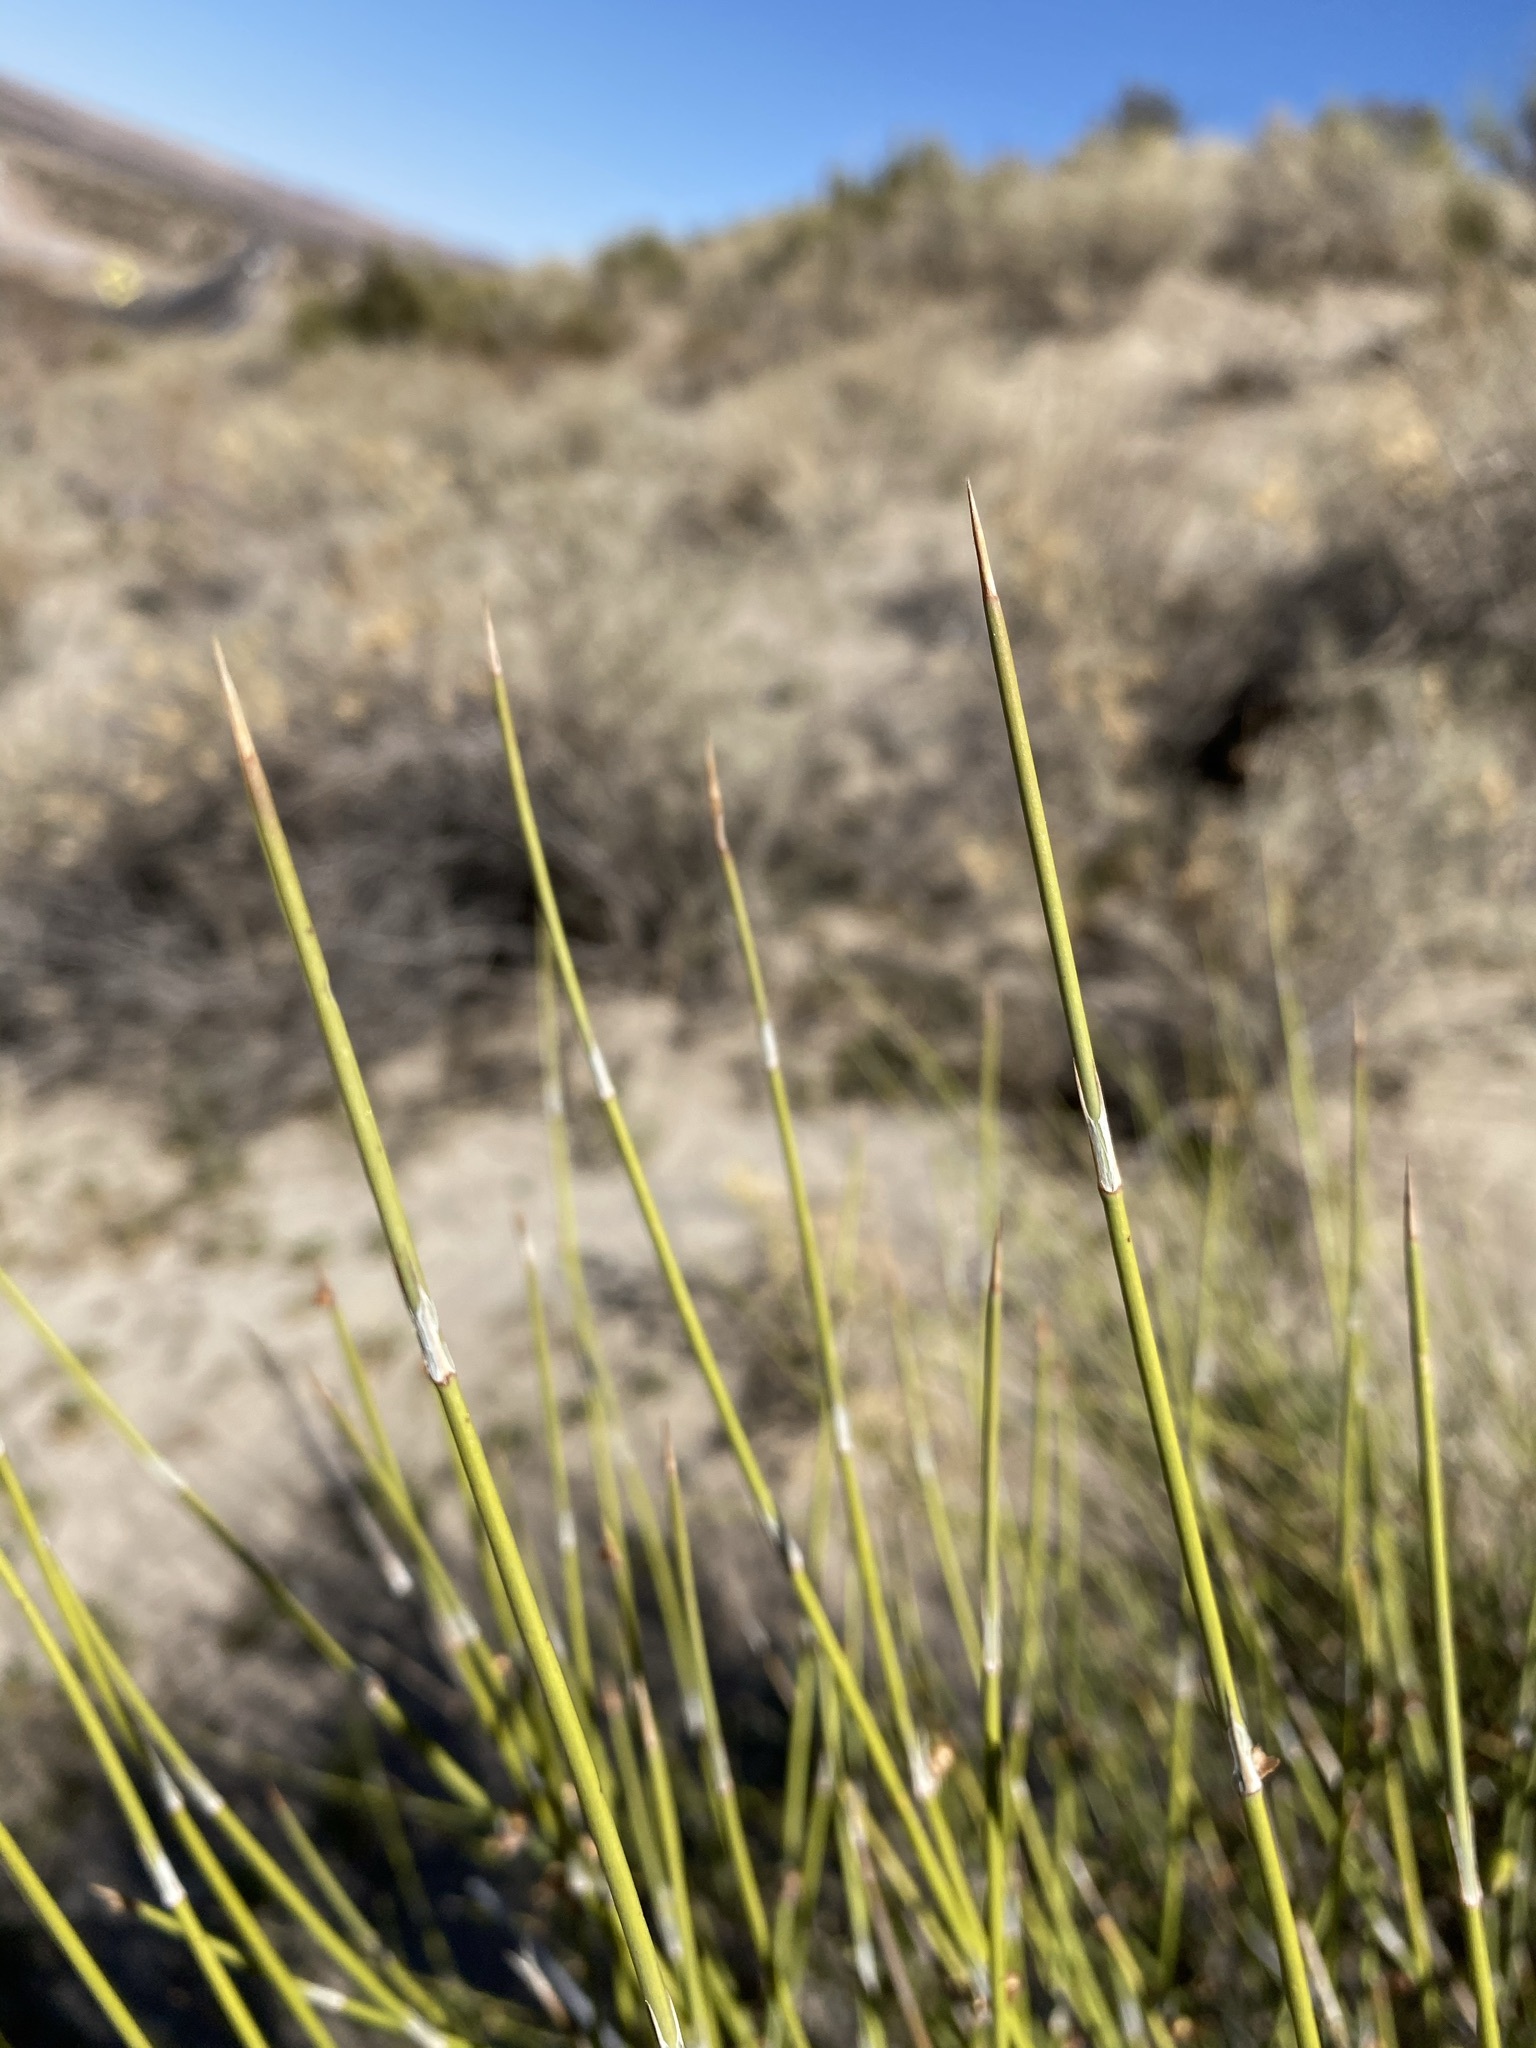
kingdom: Plantae
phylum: Tracheophyta
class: Gnetopsida
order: Ephedrales
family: Ephedraceae
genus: Ephedra
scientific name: Ephedra trifurca
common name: Mexican-tea
